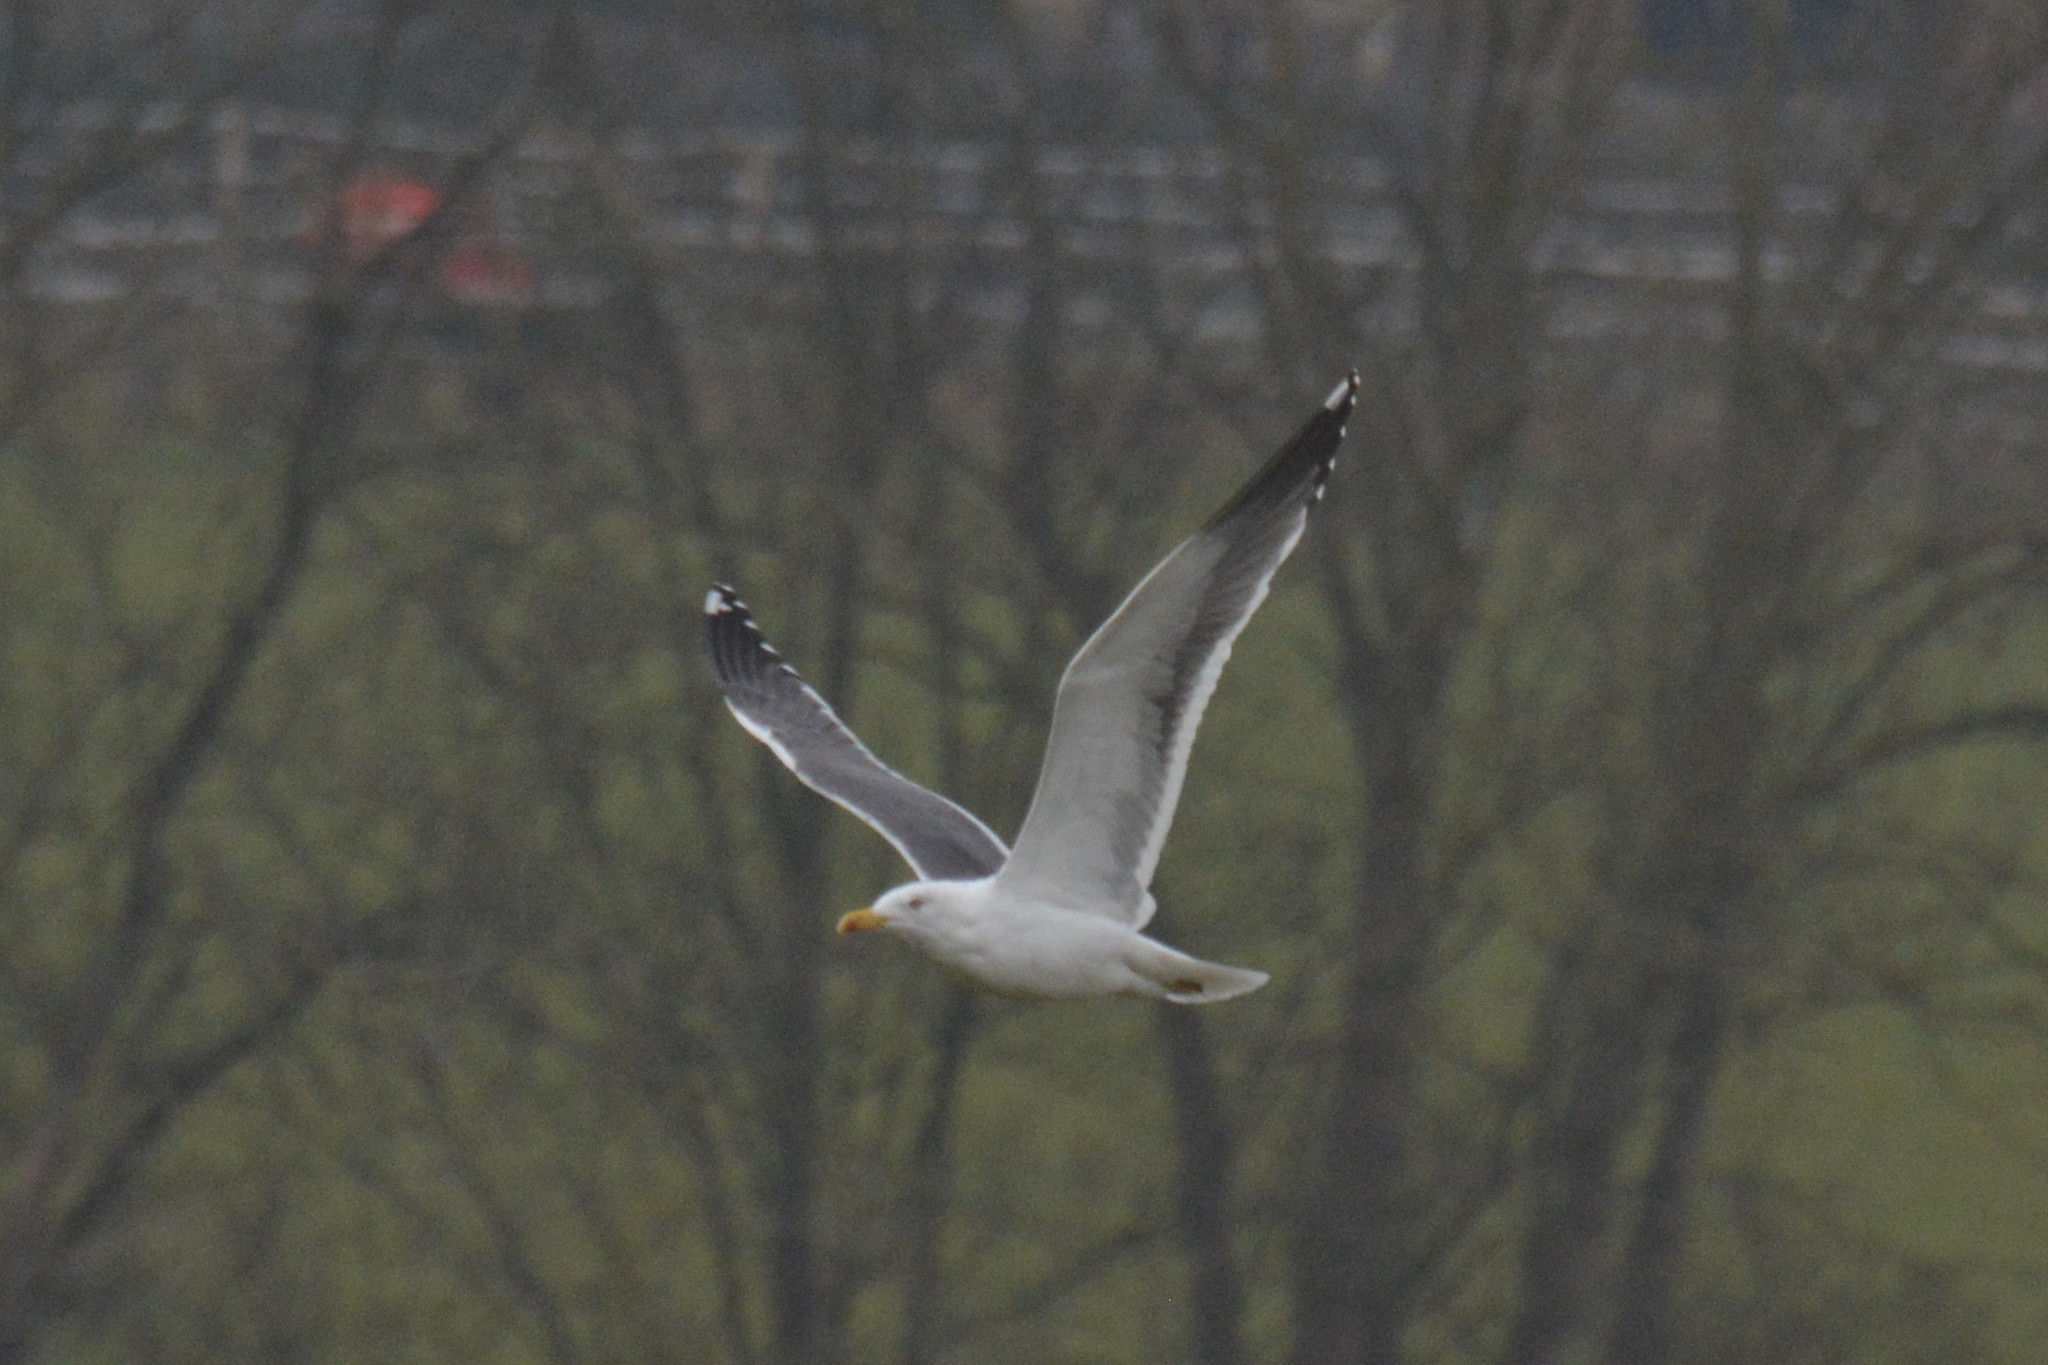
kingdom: Animalia
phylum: Chordata
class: Aves
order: Charadriiformes
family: Laridae
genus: Larus
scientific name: Larus fuscus
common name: Lesser black-backed gull
